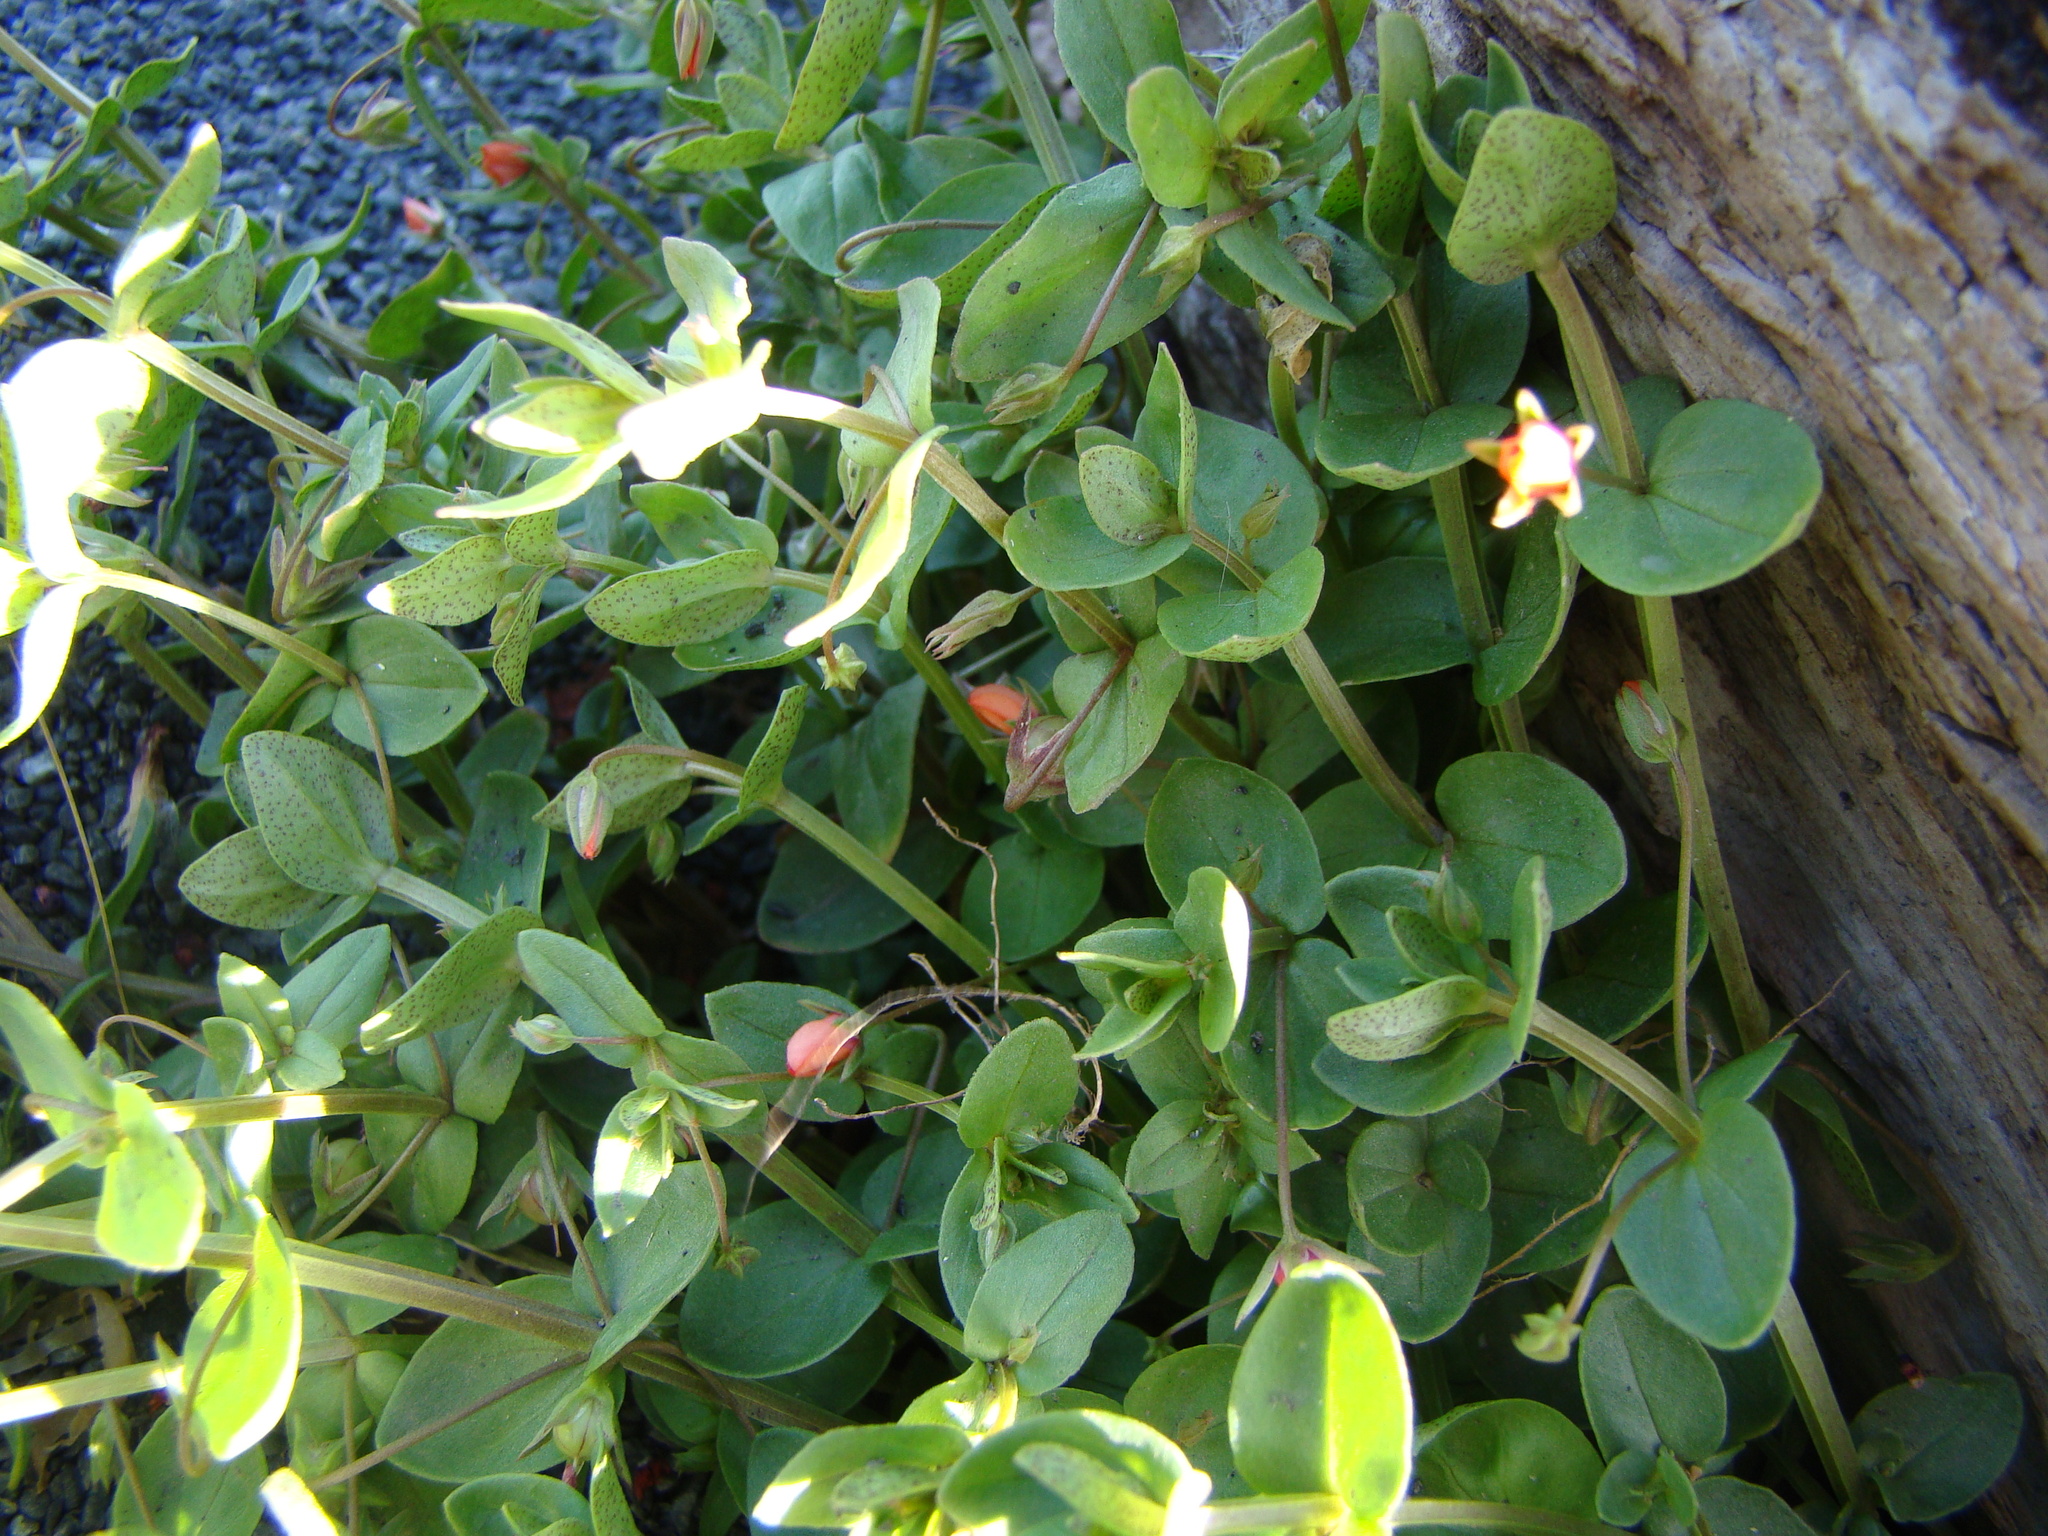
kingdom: Plantae
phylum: Tracheophyta
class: Magnoliopsida
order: Ericales
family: Primulaceae
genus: Lysimachia
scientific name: Lysimachia arvensis
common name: Scarlet pimpernel
